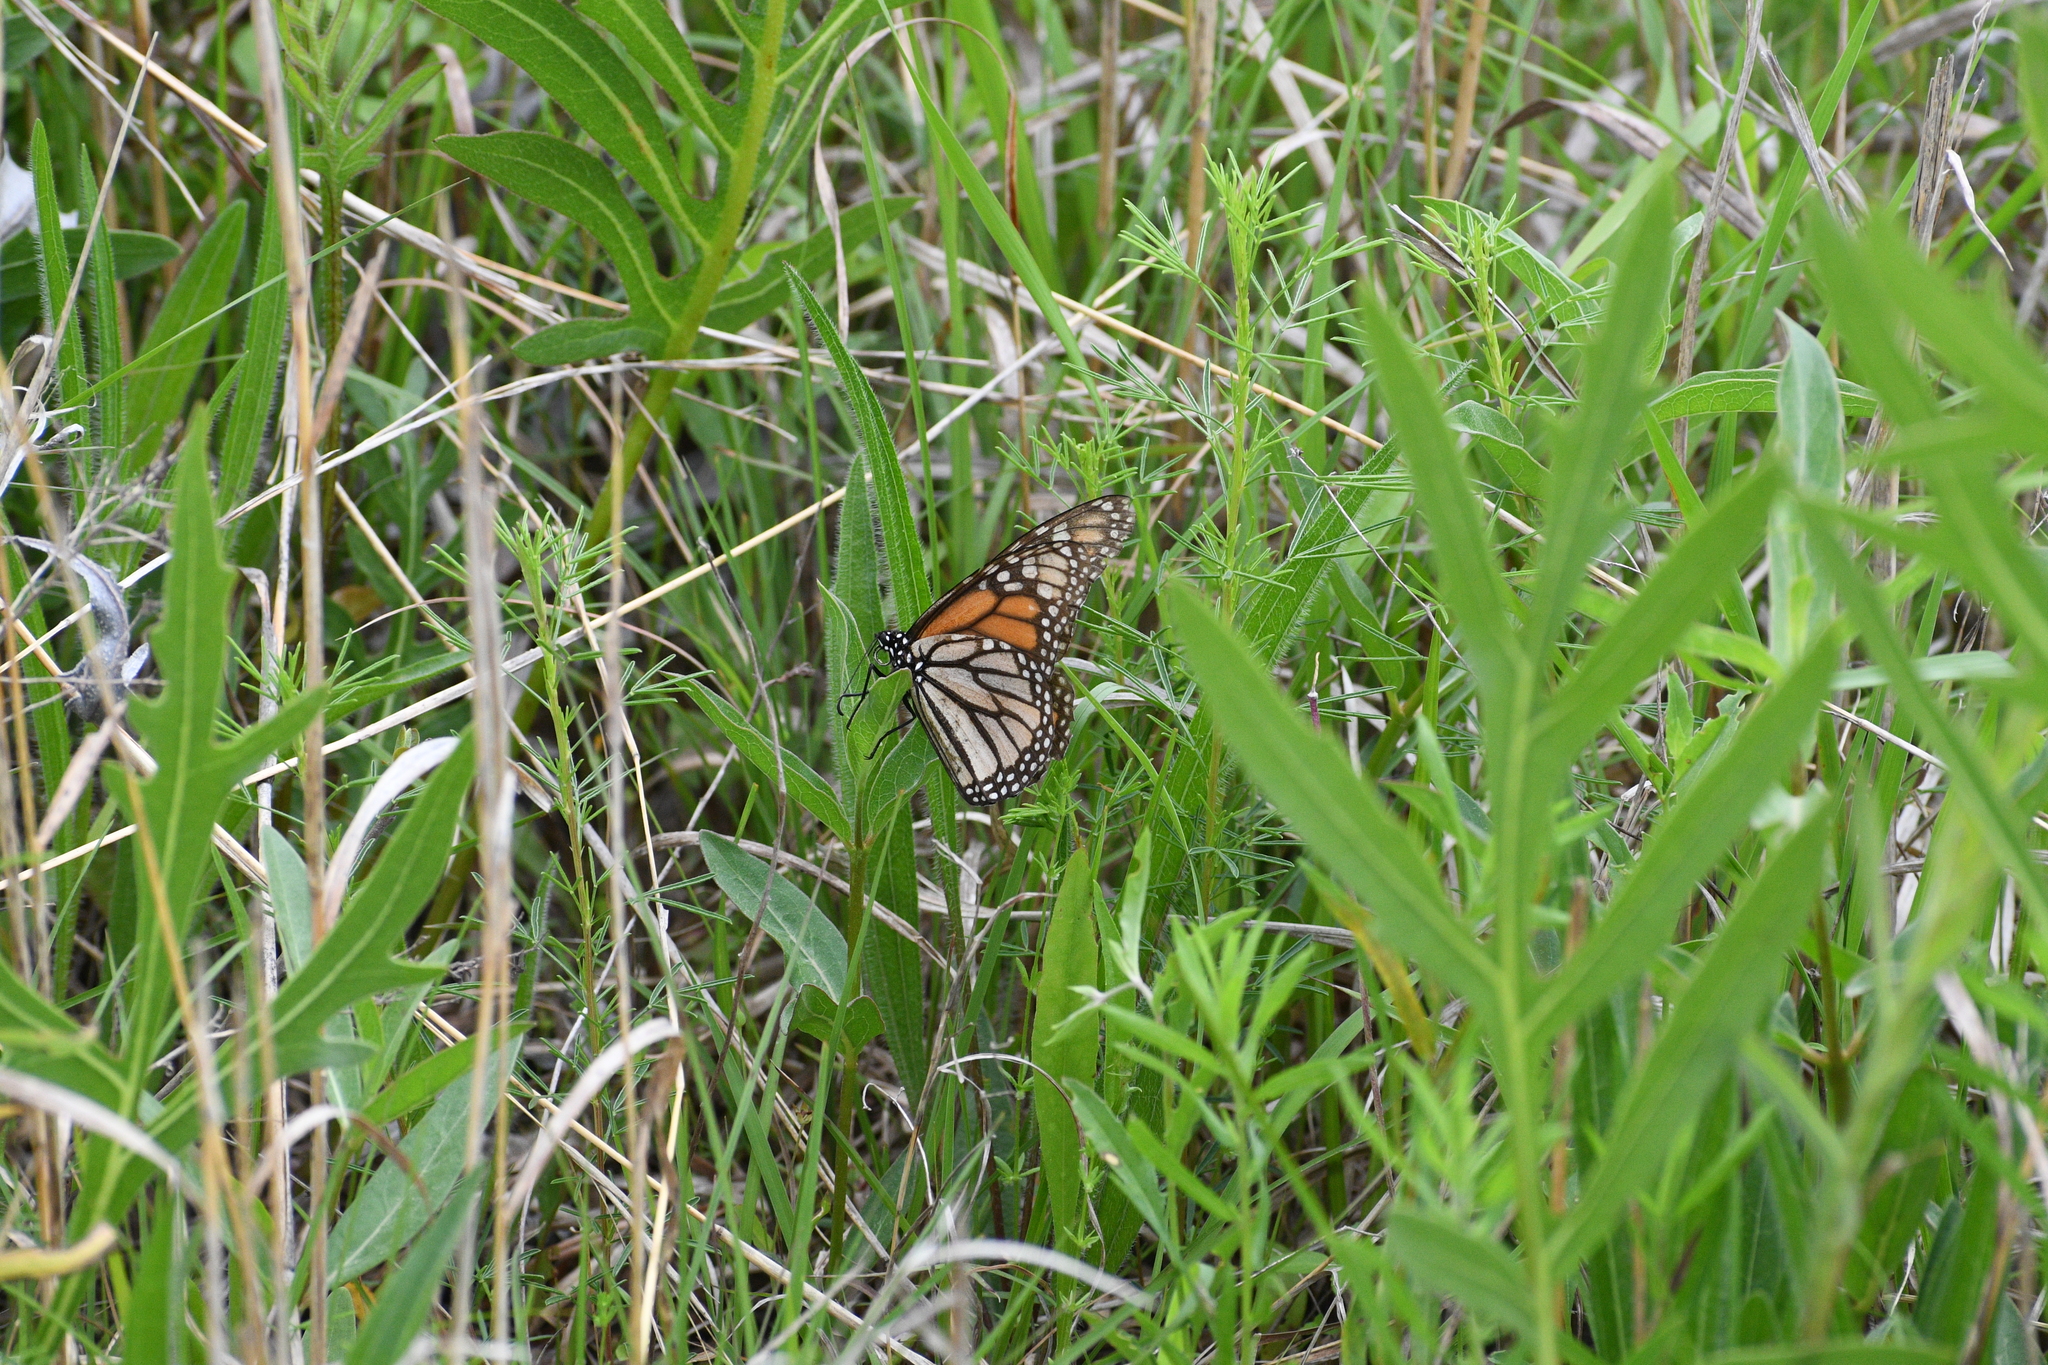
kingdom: Animalia
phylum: Arthropoda
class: Insecta
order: Lepidoptera
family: Nymphalidae
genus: Danaus
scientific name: Danaus plexippus
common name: Monarch
